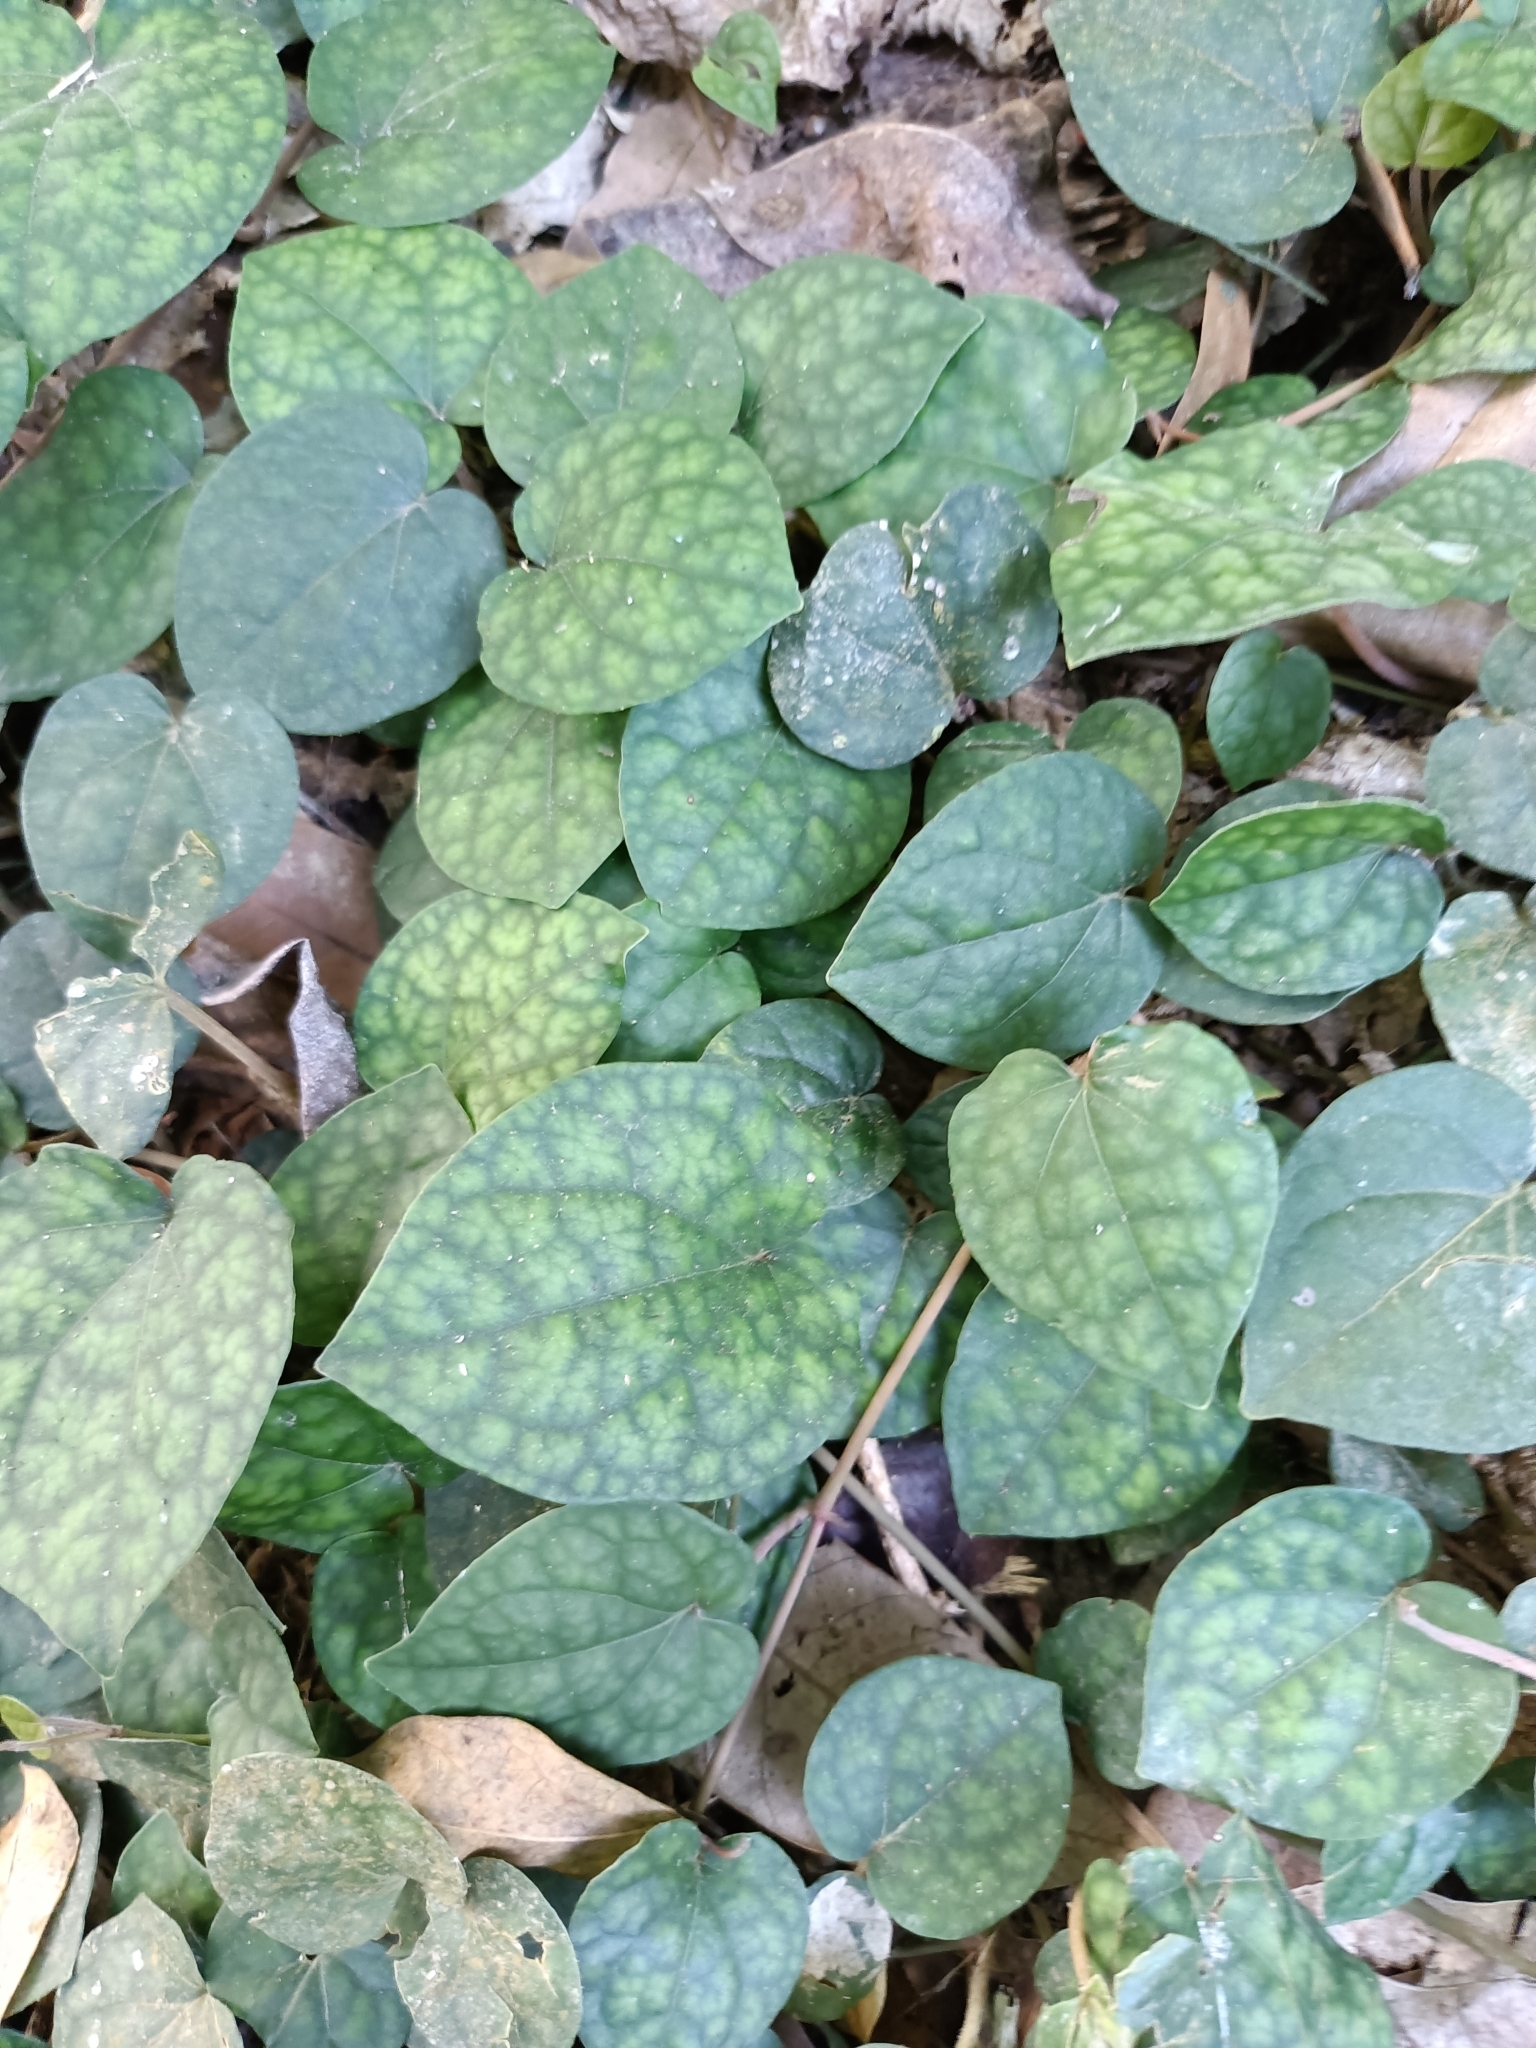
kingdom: Plantae
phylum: Tracheophyta
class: Magnoliopsida
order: Piperales
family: Piperaceae
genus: Piper
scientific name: Piper kadsura
